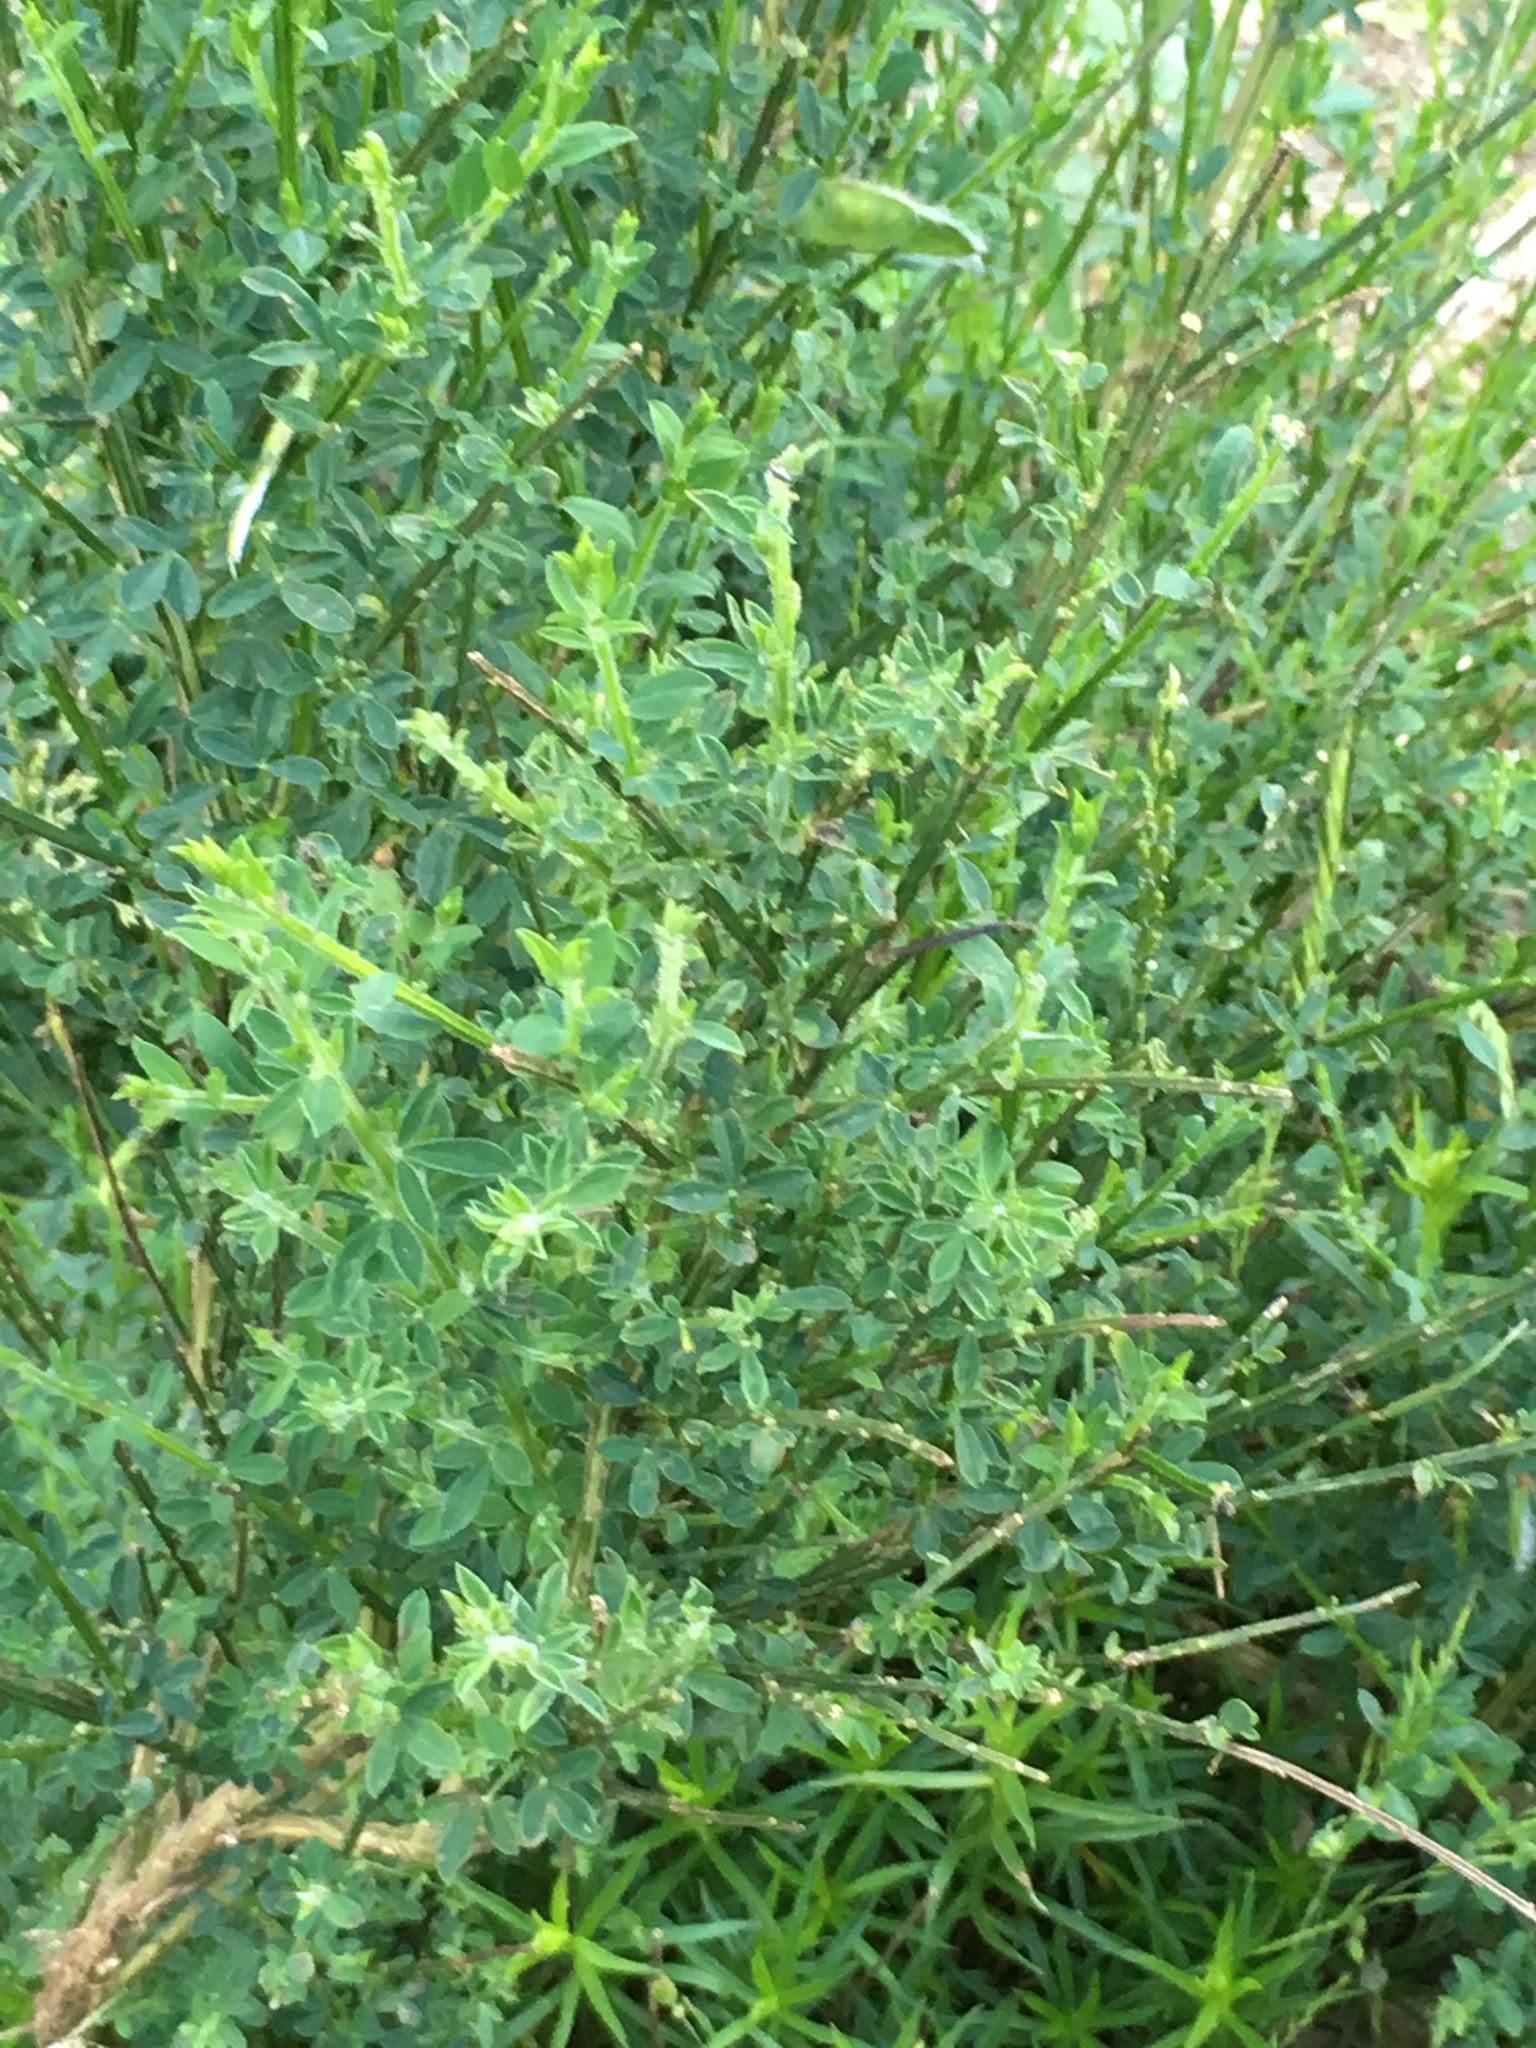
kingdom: Plantae
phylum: Tracheophyta
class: Magnoliopsida
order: Fabales
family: Fabaceae
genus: Cytisus
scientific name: Cytisus scoparius
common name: Scotch broom
